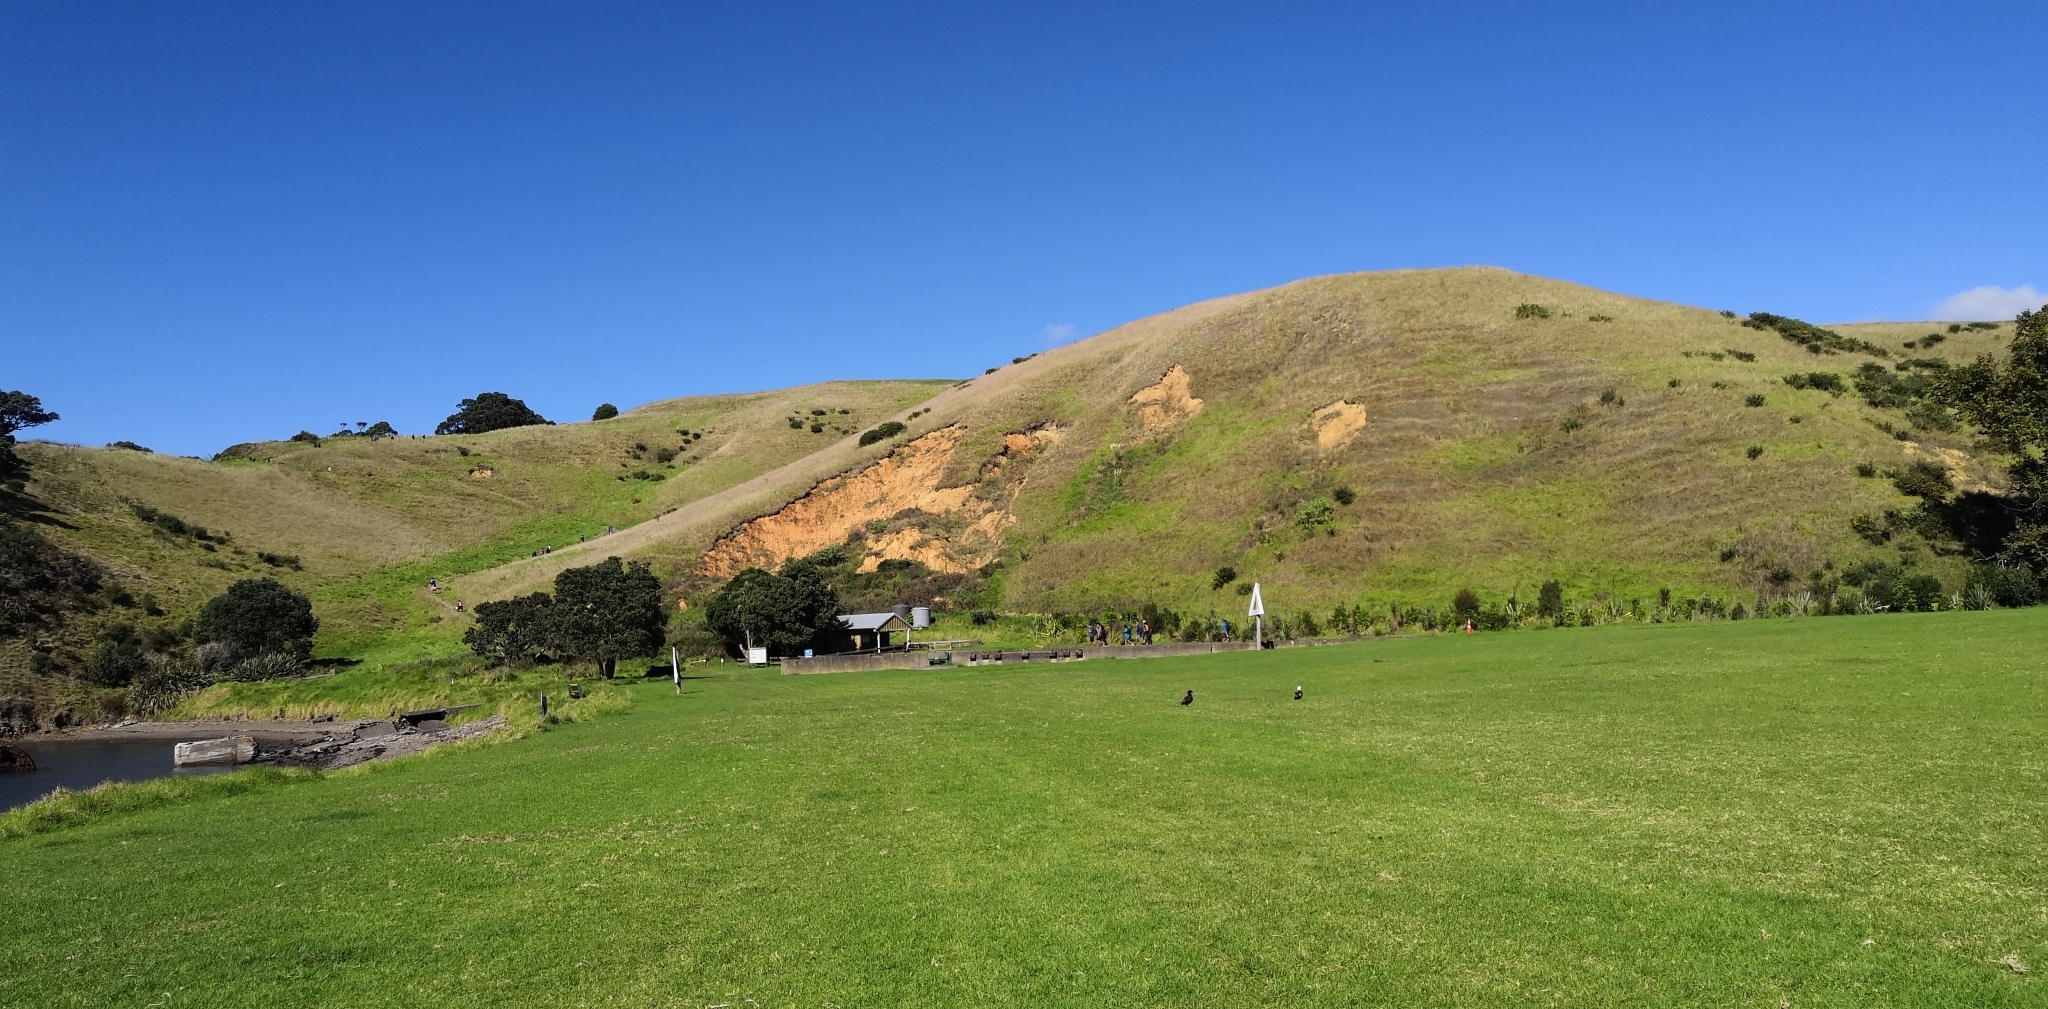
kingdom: Animalia
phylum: Chordata
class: Aves
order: Anseriformes
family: Anatidae
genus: Tadorna
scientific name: Tadorna variegata
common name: Paradise shelduck
